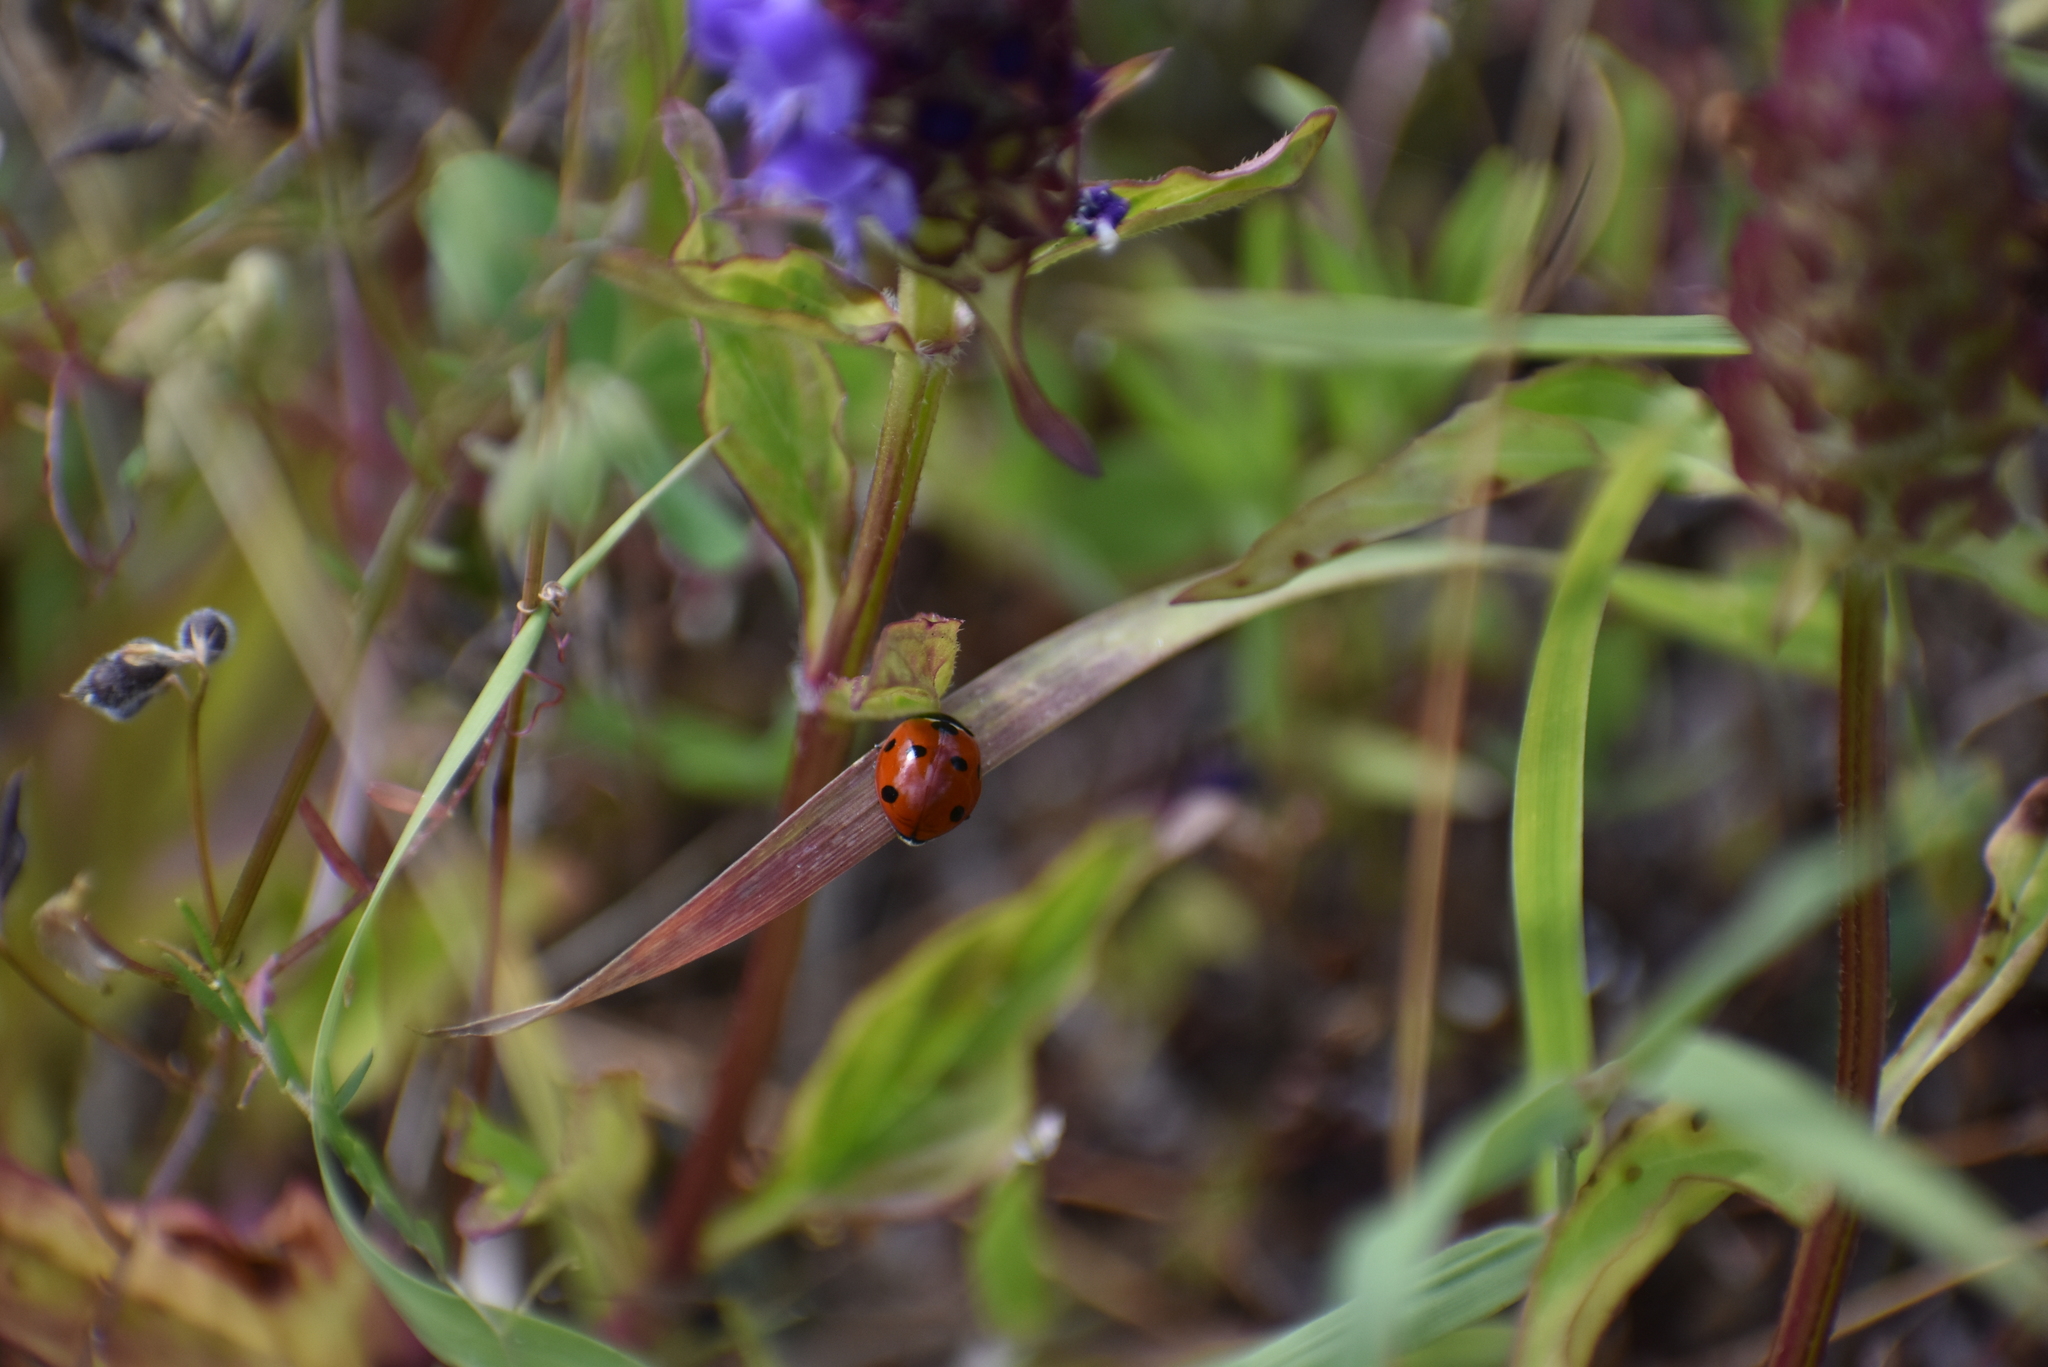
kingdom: Animalia
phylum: Arthropoda
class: Insecta
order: Coleoptera
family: Coccinellidae
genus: Coccinella
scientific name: Coccinella septempunctata
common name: Sevenspotted lady beetle
